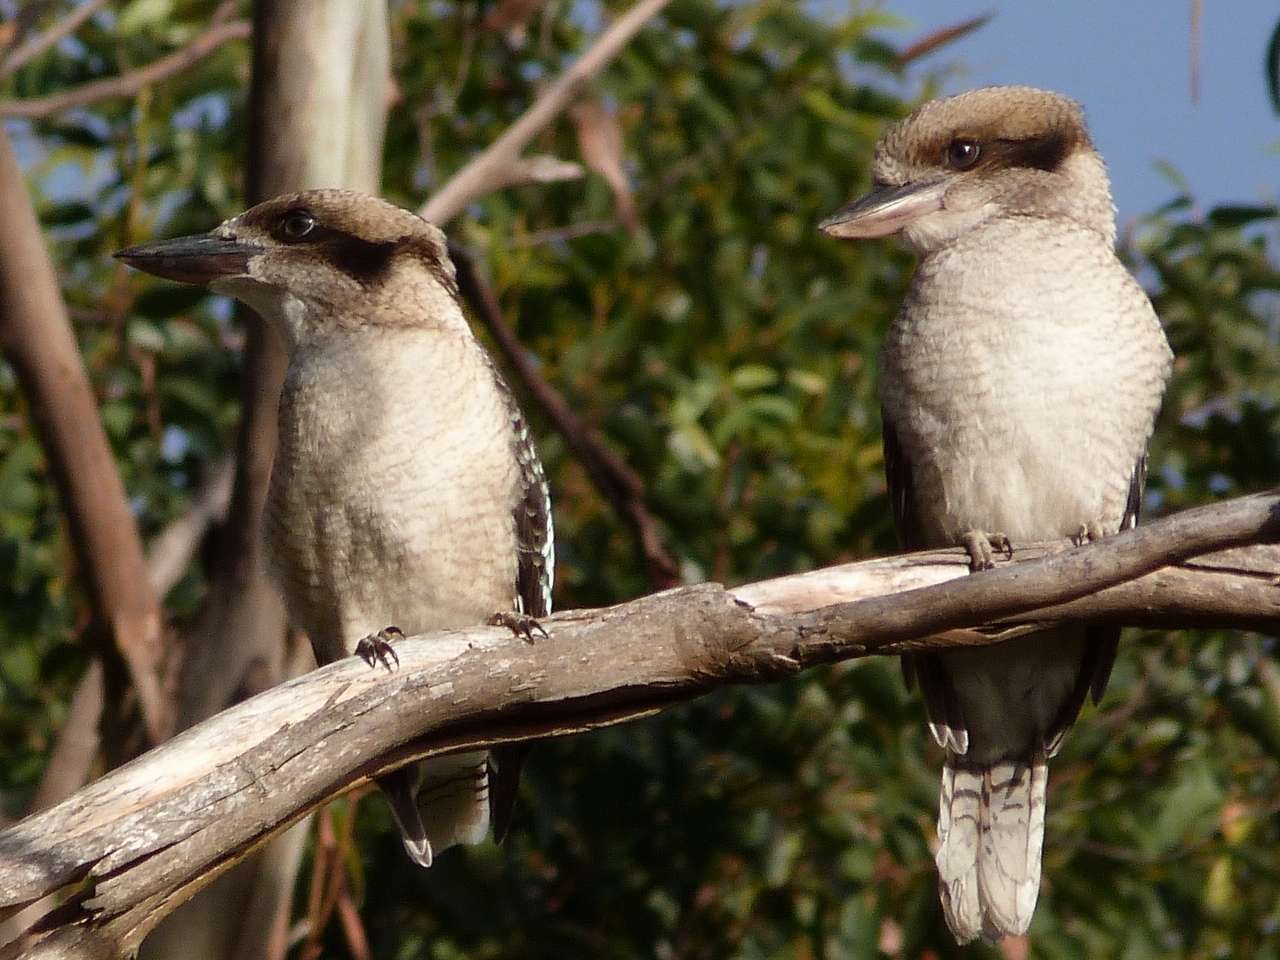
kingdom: Animalia
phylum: Chordata
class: Aves
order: Coraciiformes
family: Alcedinidae
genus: Dacelo
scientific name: Dacelo novaeguineae
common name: Laughing kookaburra
